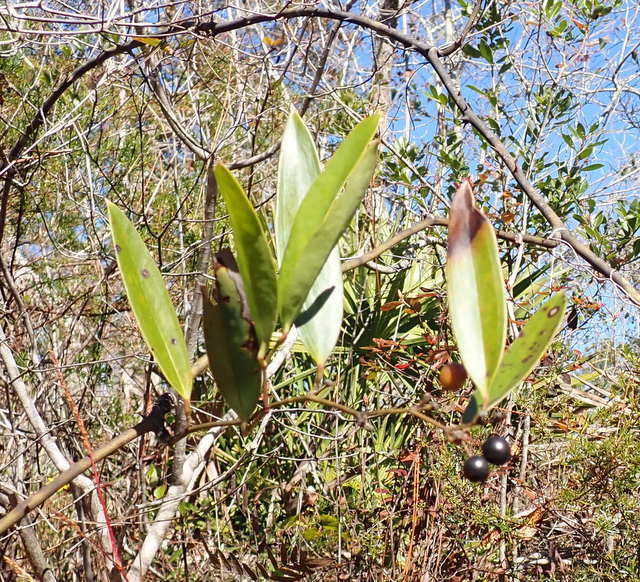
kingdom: Plantae
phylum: Tracheophyta
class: Liliopsida
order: Liliales
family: Smilacaceae
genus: Smilax
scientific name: Smilax laurifolia
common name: Bamboovine
